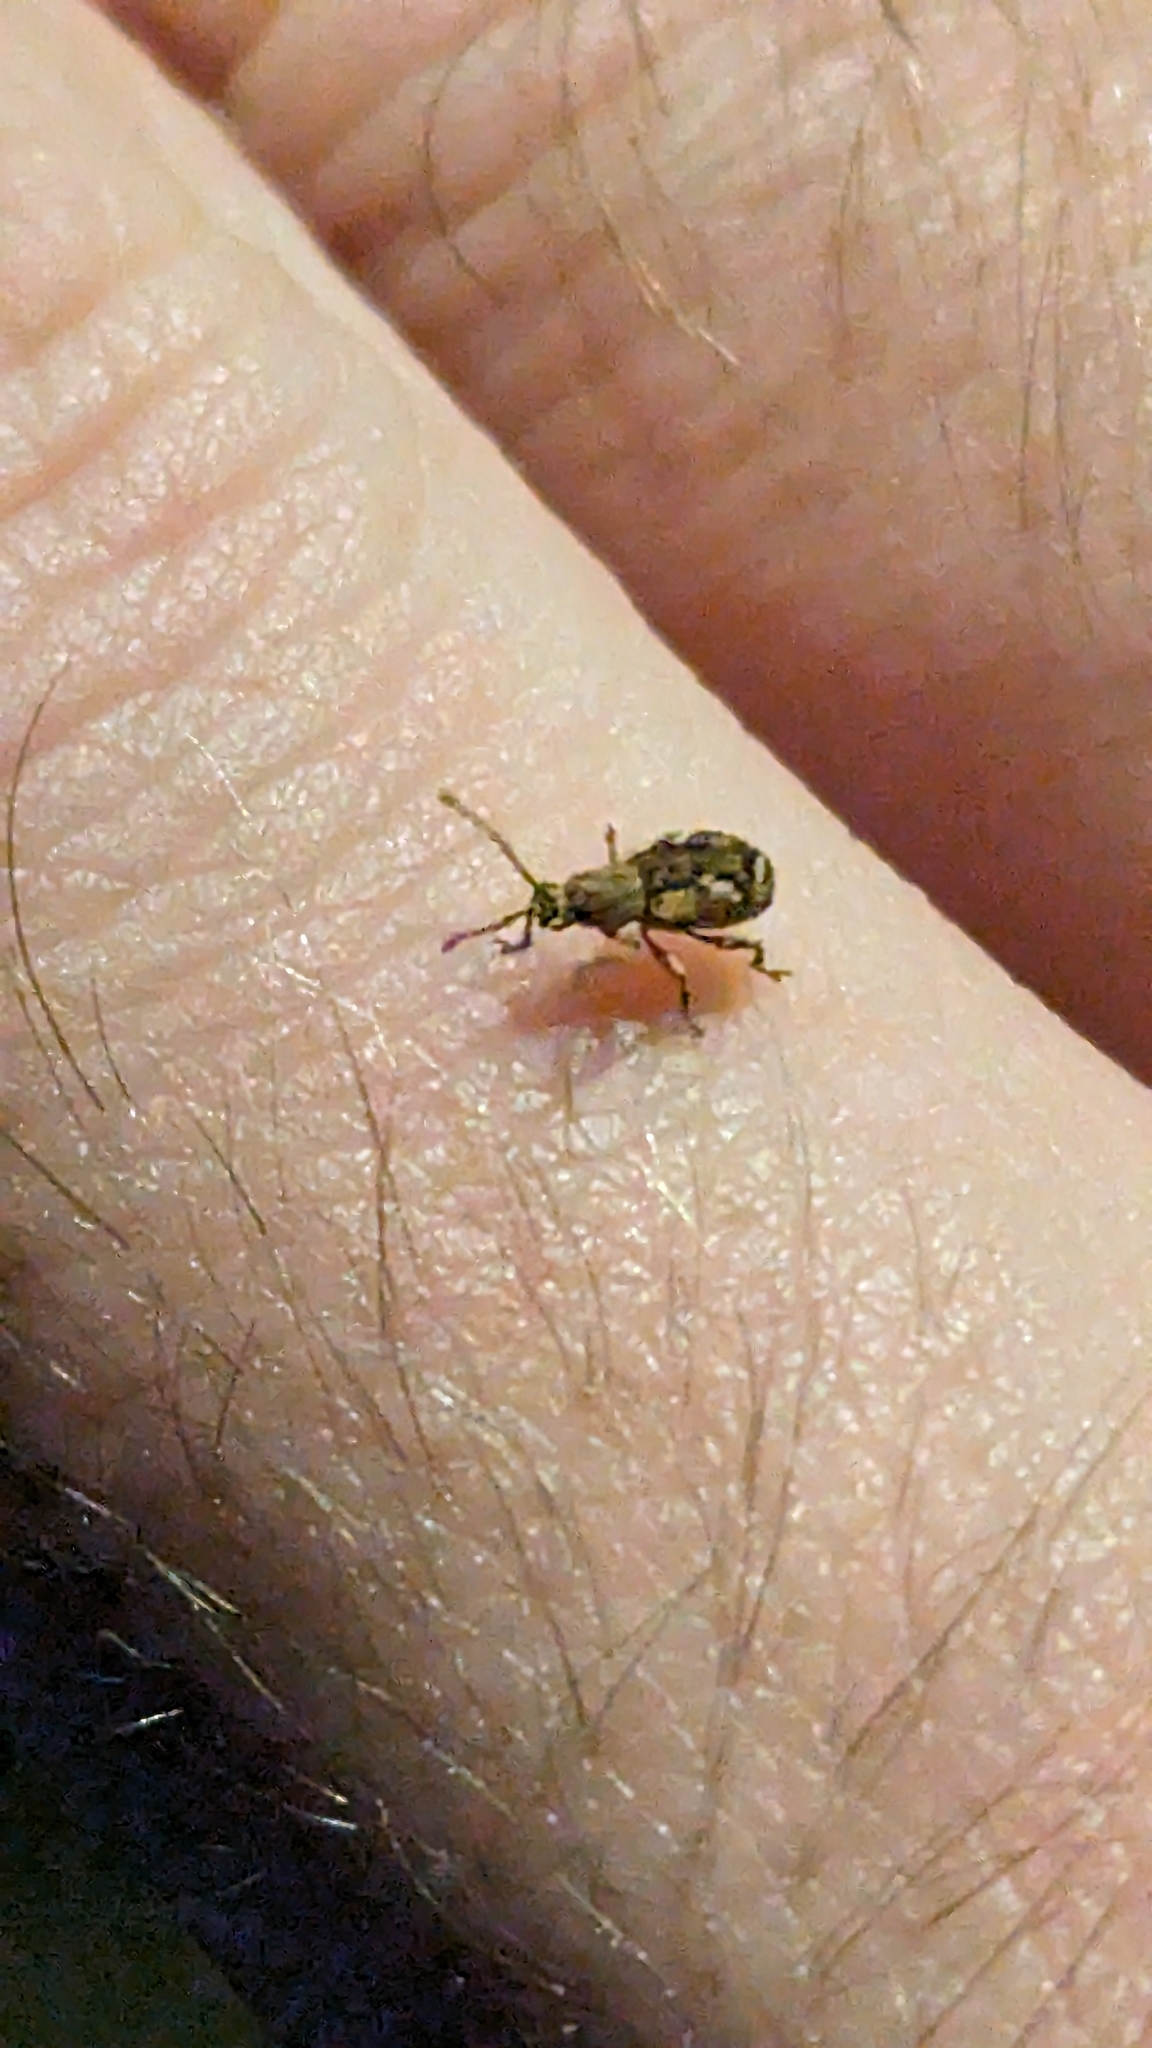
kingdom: Animalia
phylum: Arthropoda
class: Insecta
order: Coleoptera
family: Curculionidae
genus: Pseudoedophrys
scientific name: Pseudoedophrys hilleri
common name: Weevil
